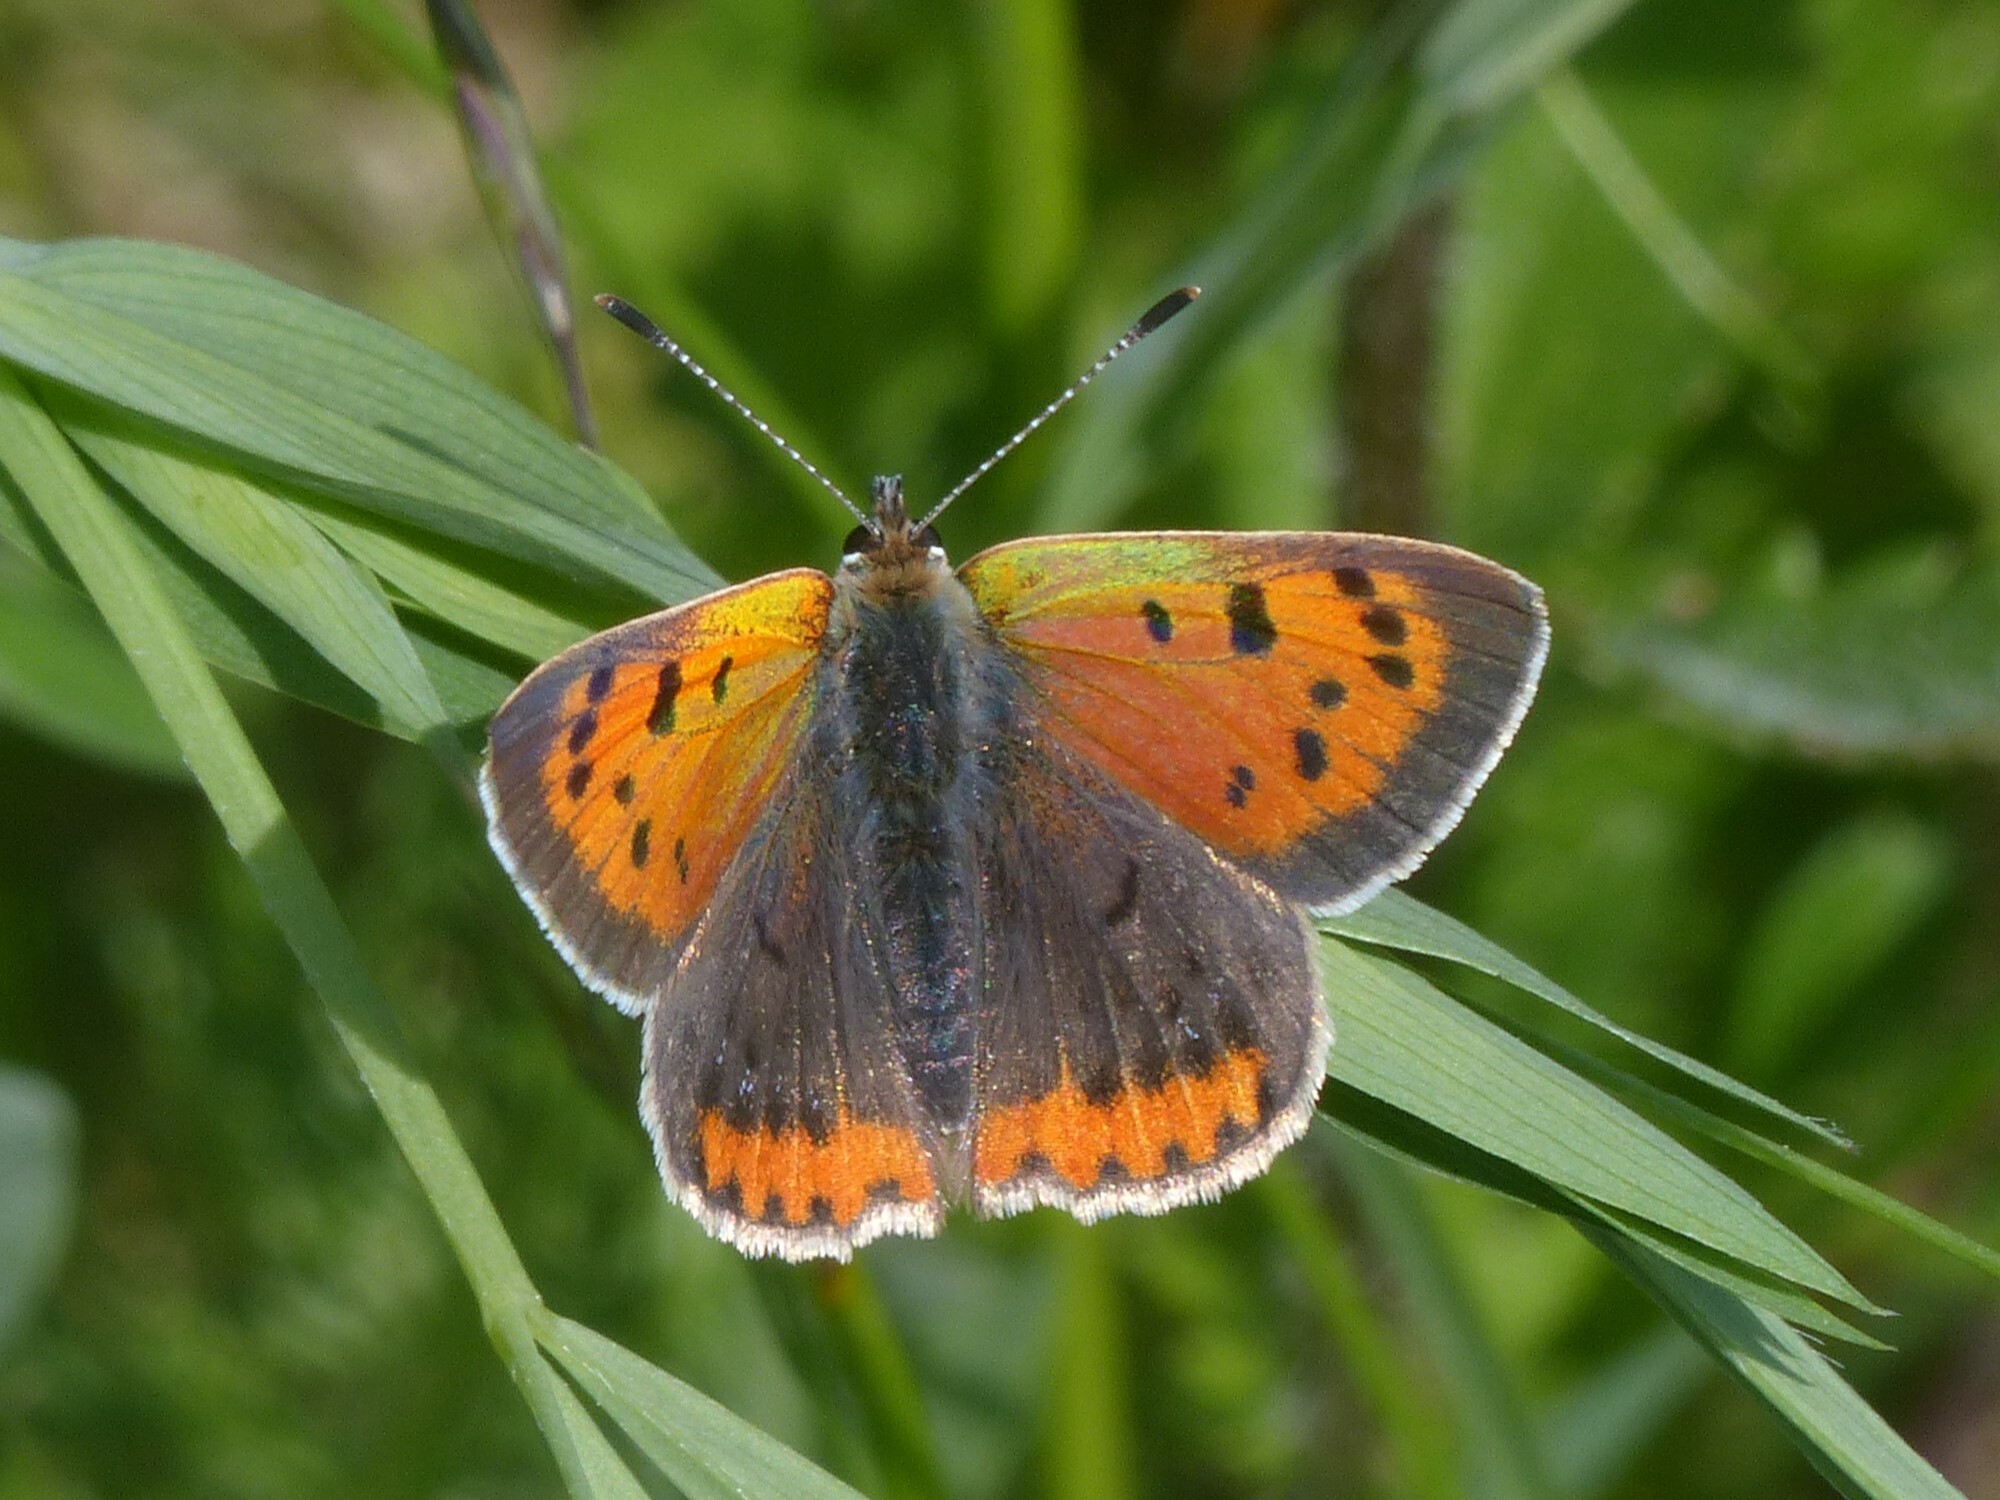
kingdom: Animalia
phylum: Arthropoda
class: Insecta
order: Lepidoptera
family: Lycaenidae
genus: Lycaena
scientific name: Lycaena phlaeas
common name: Small copper
